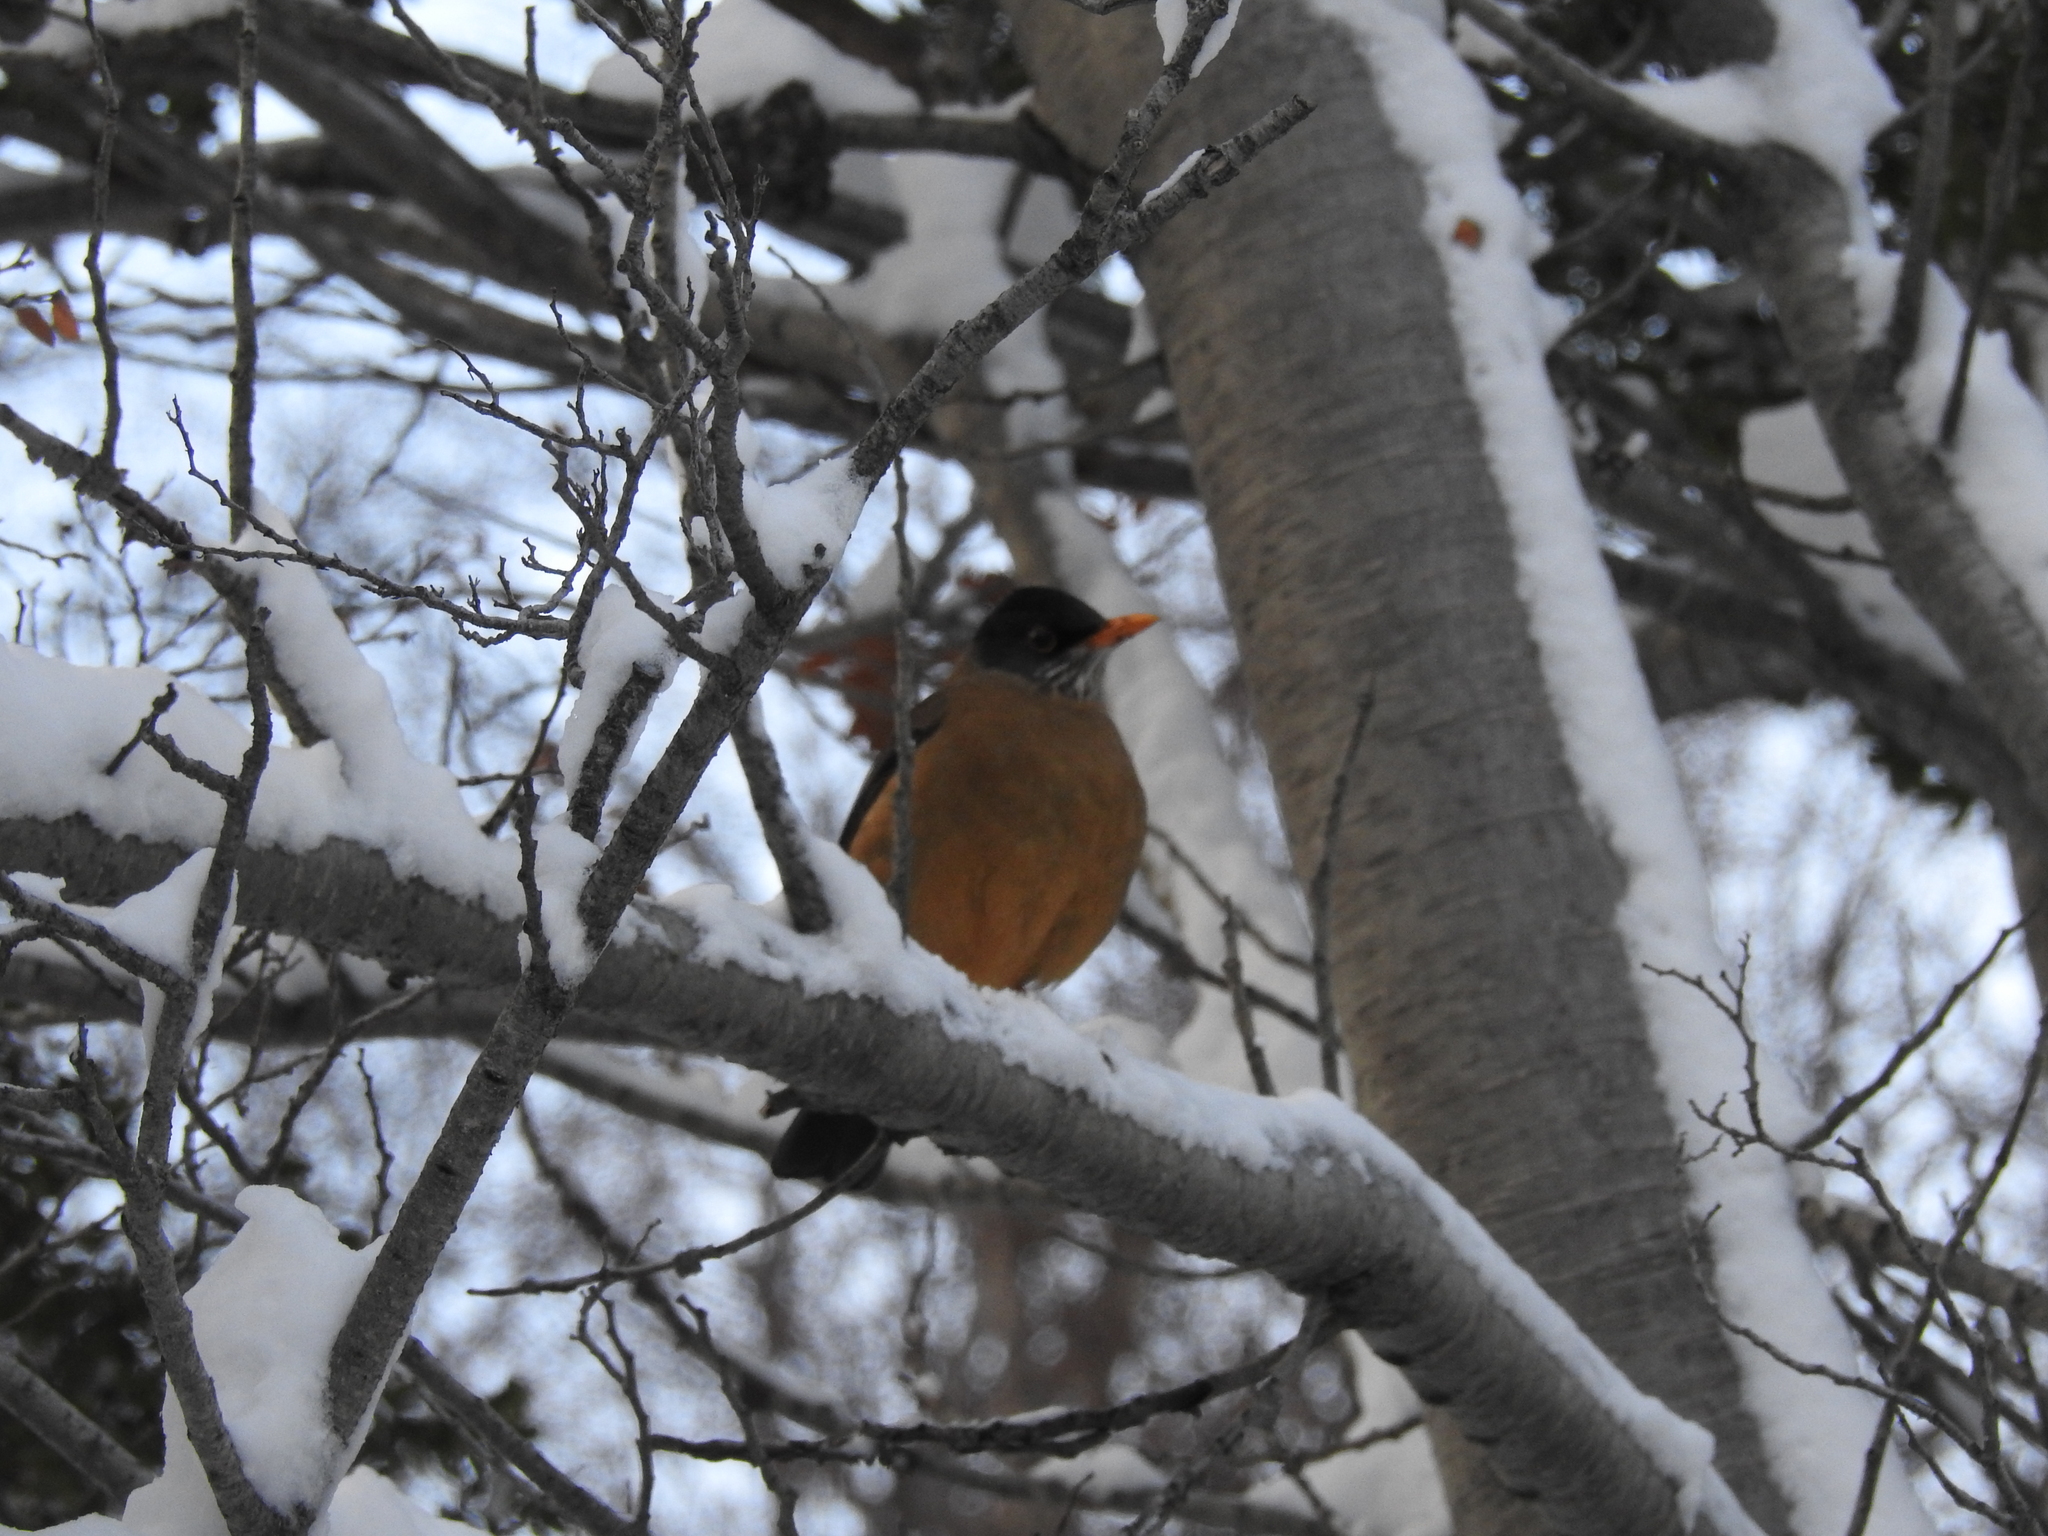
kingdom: Animalia
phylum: Chordata
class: Aves
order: Passeriformes
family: Turdidae
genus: Turdus
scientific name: Turdus falcklandii
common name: Austral thrush
